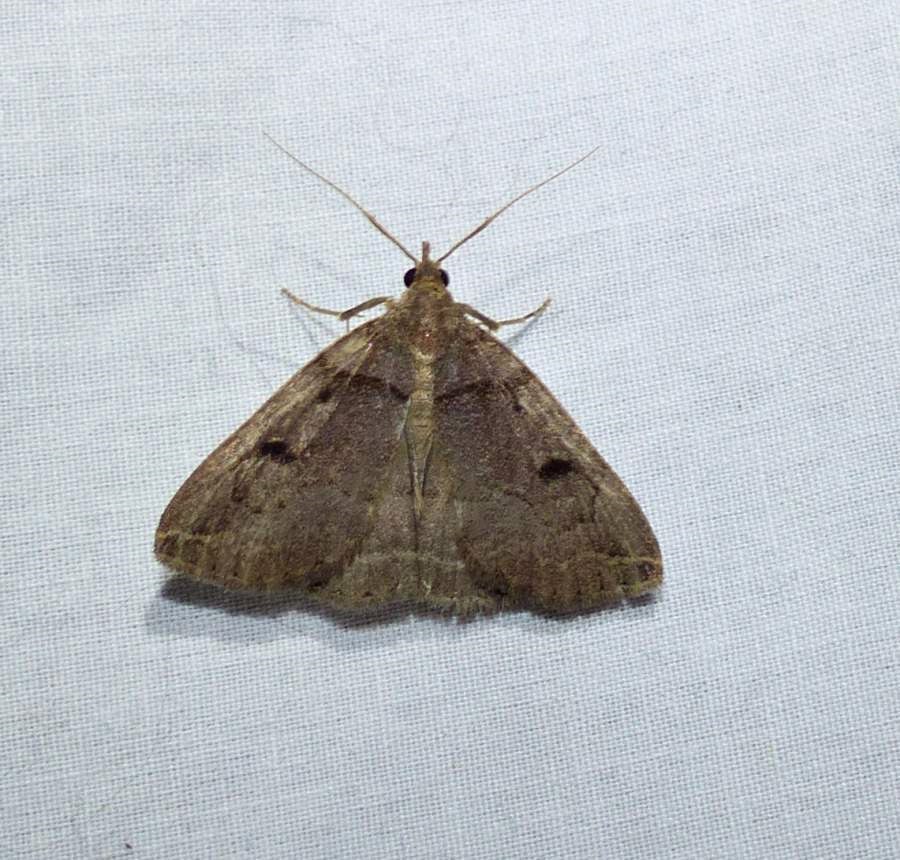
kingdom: Animalia
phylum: Arthropoda
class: Insecta
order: Lepidoptera
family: Erebidae
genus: Zanclognatha
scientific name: Zanclognatha laevigata
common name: Variable fan-foot
